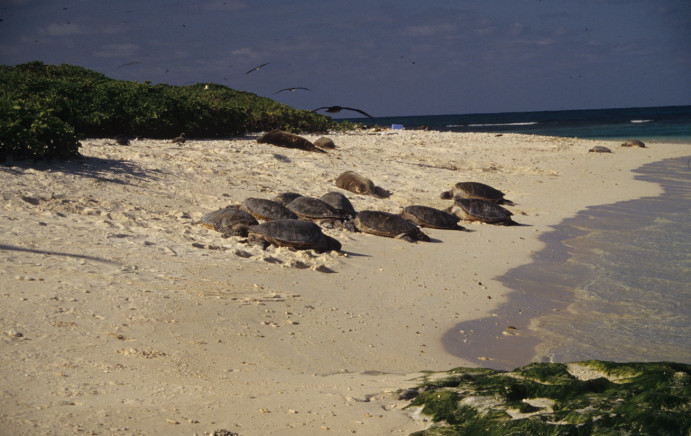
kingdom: Animalia
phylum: Chordata
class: Testudines
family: Cheloniidae
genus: Chelonia
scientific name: Chelonia mydas
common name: Green turtle
